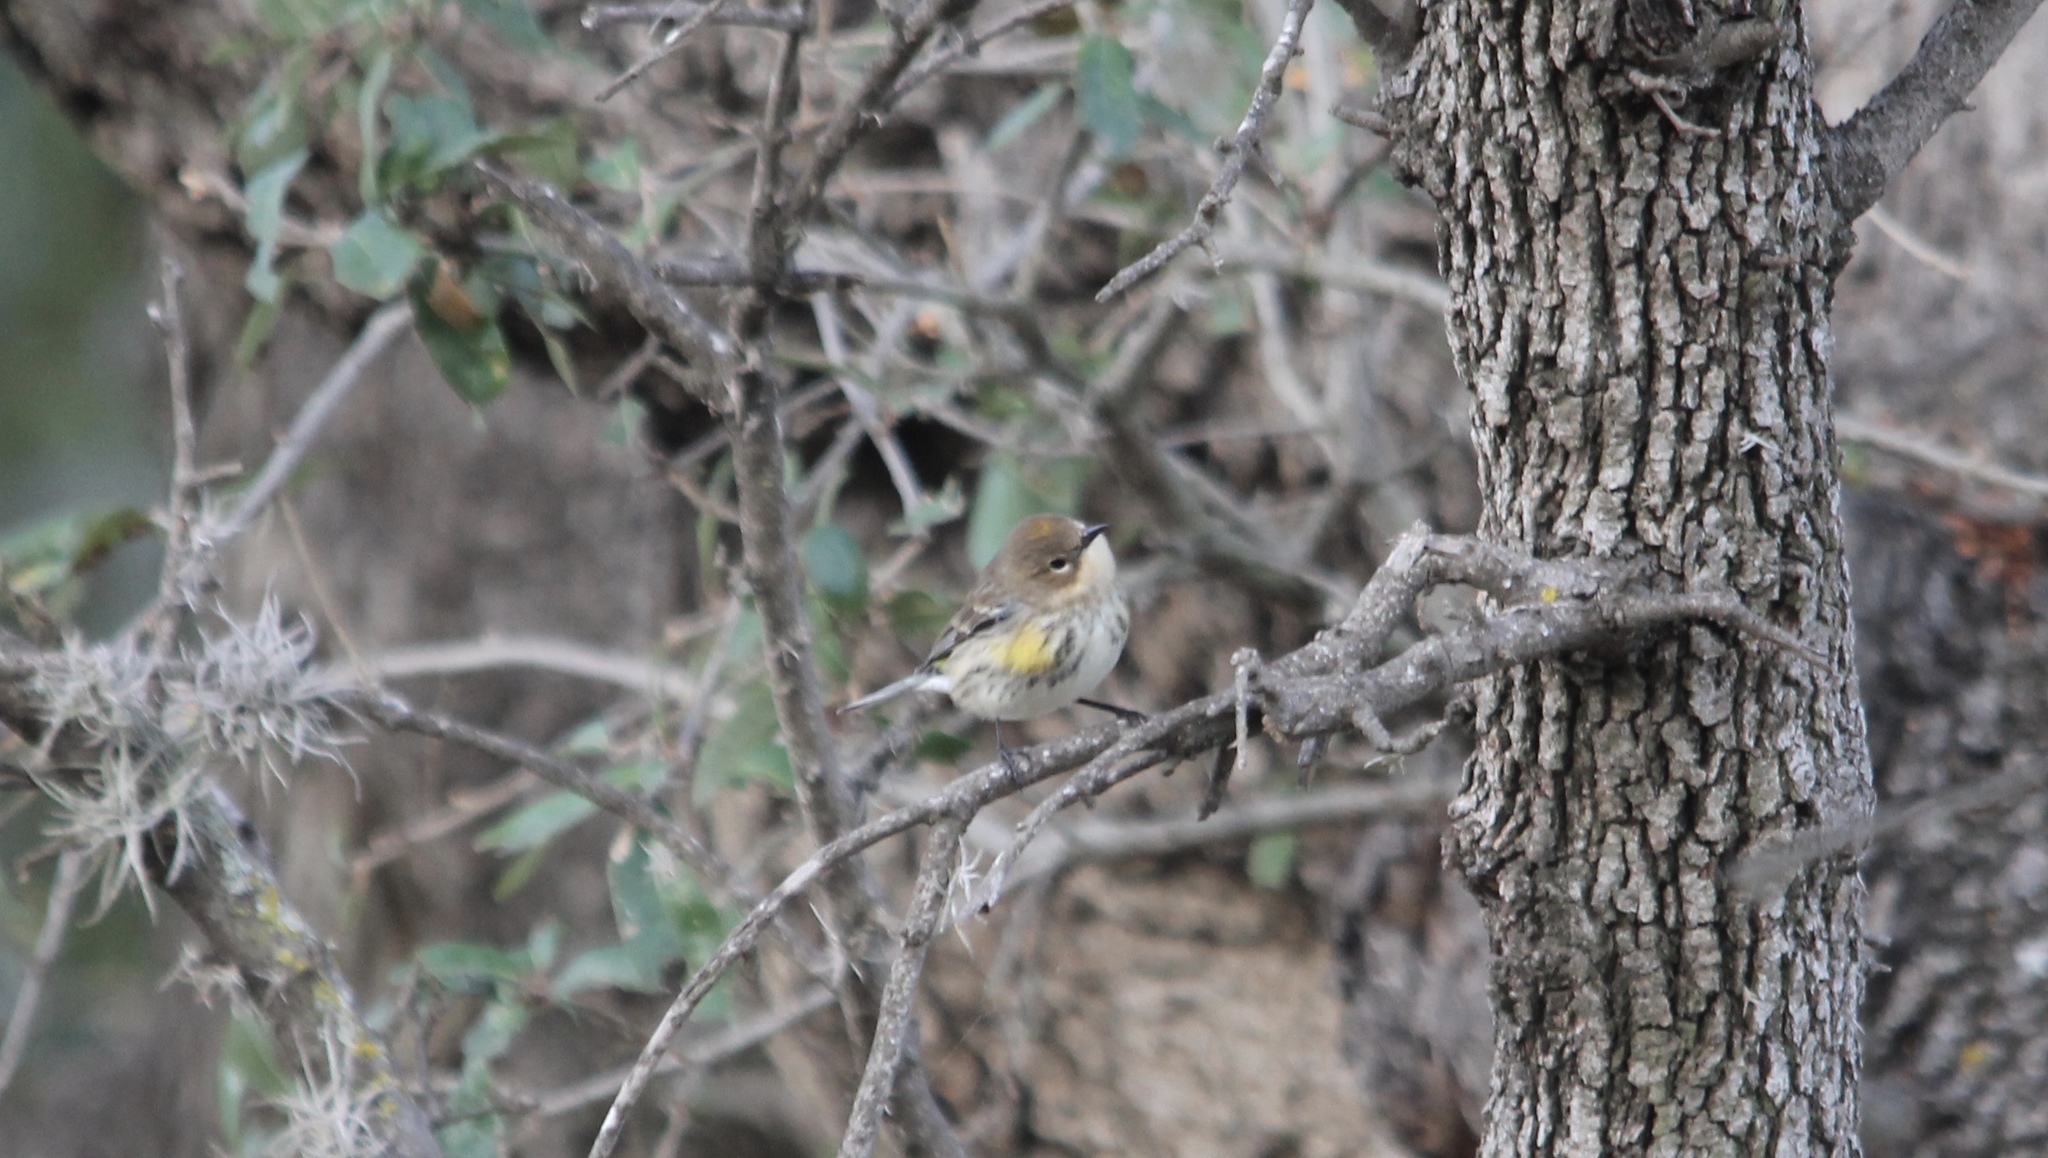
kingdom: Animalia
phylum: Chordata
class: Aves
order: Passeriformes
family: Parulidae
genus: Setophaga
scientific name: Setophaga coronata
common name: Myrtle warbler
